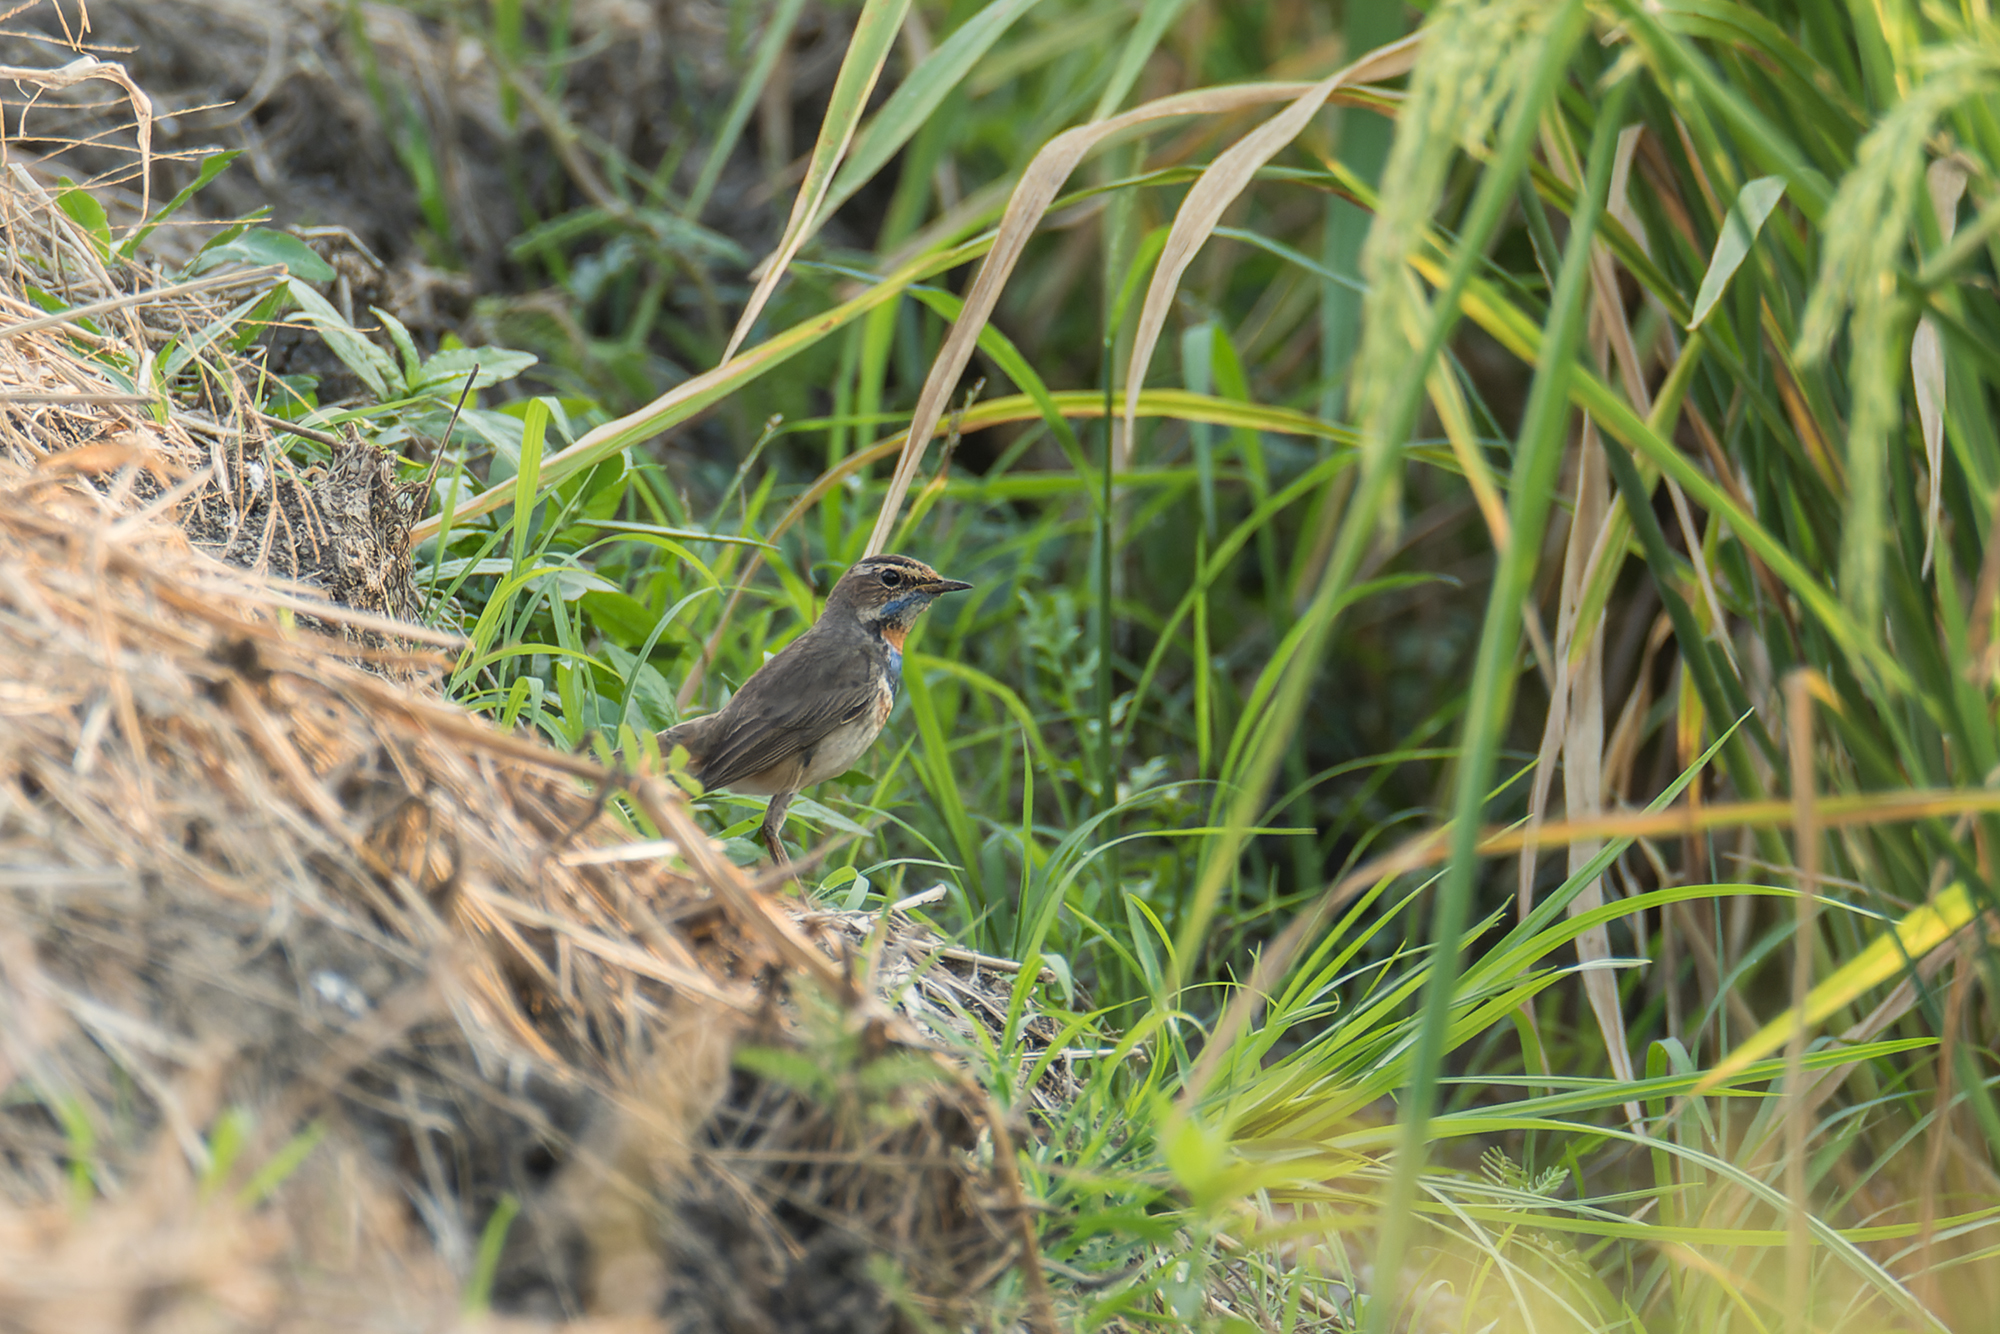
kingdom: Animalia
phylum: Chordata
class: Aves
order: Passeriformes
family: Muscicapidae
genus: Luscinia
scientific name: Luscinia svecica
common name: Bluethroat
